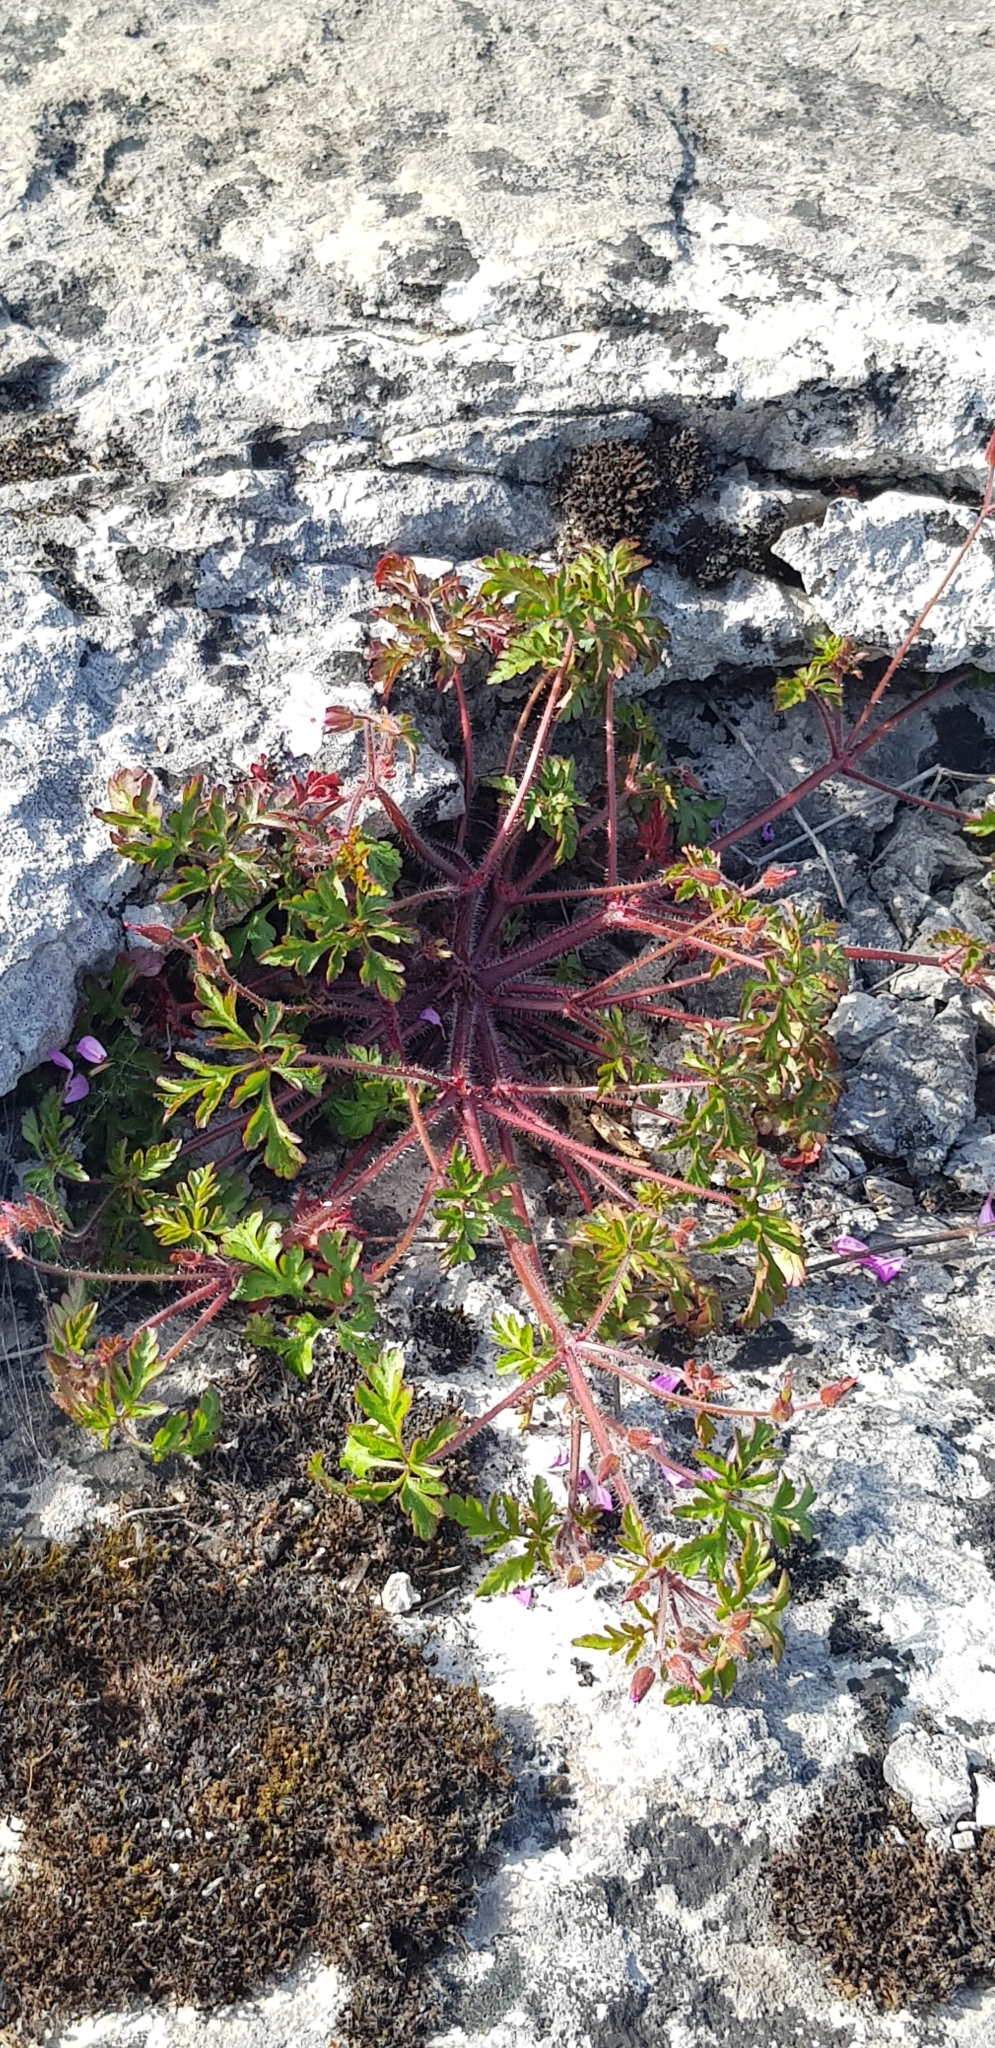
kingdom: Plantae
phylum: Tracheophyta
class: Magnoliopsida
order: Geraniales
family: Geraniaceae
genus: Geranium
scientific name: Geranium robertianum
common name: Herb-robert
